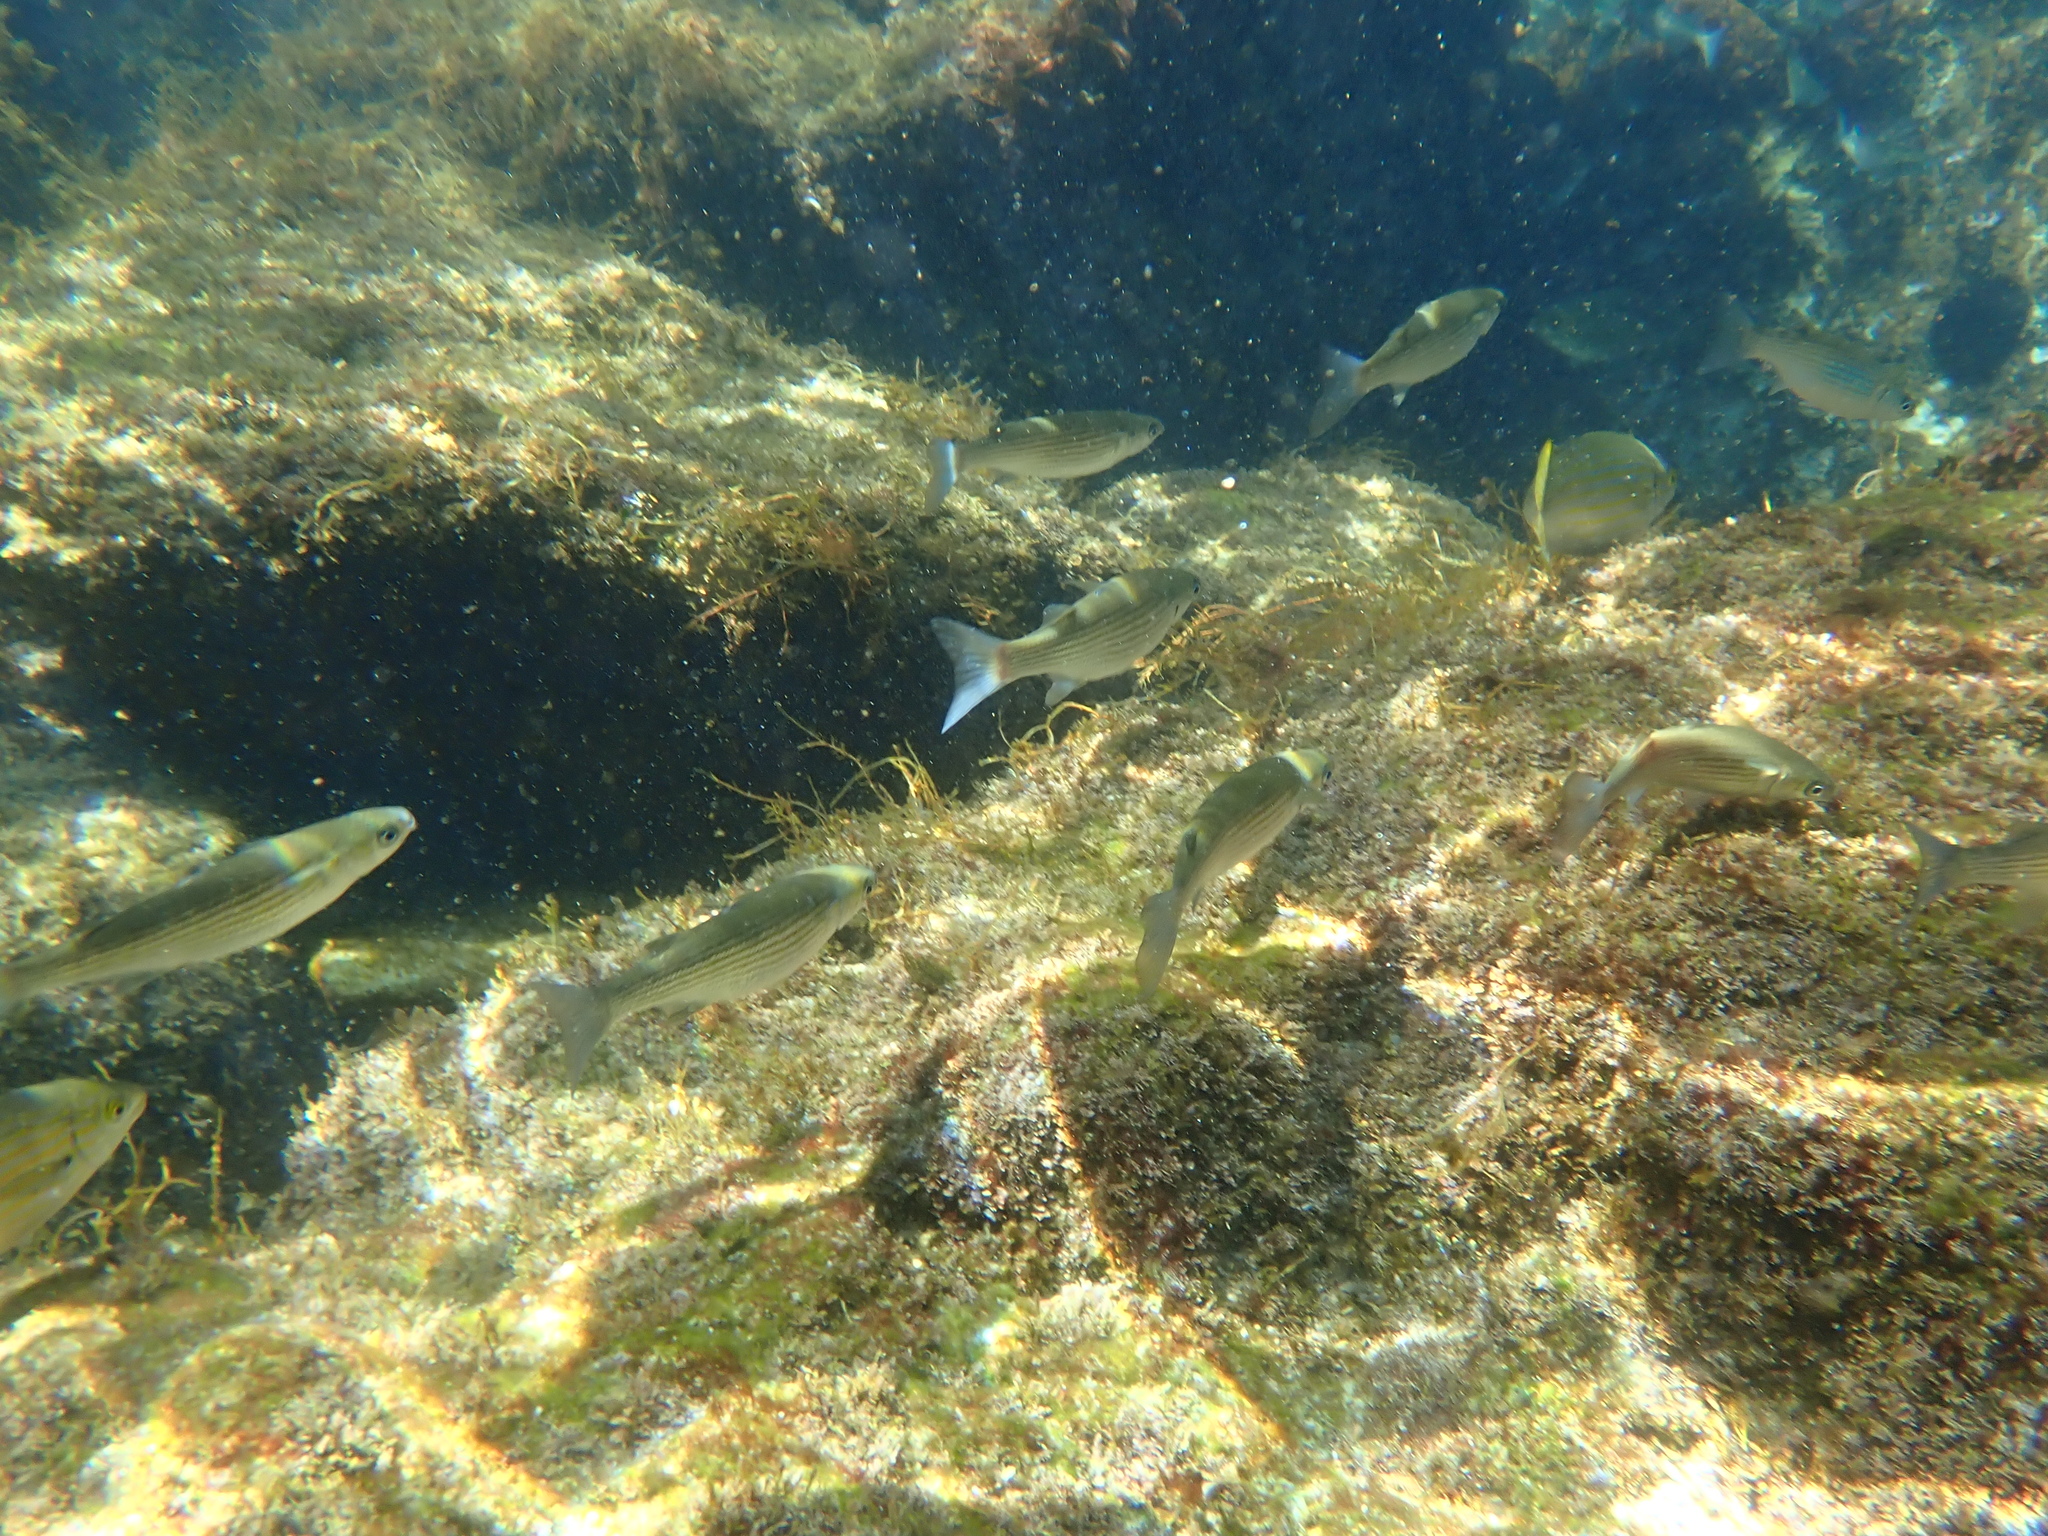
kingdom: Animalia
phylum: Chordata
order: Mugiliformes
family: Mugilidae
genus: Oedalechilus
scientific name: Oedalechilus labeo
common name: Boxlip mullet
